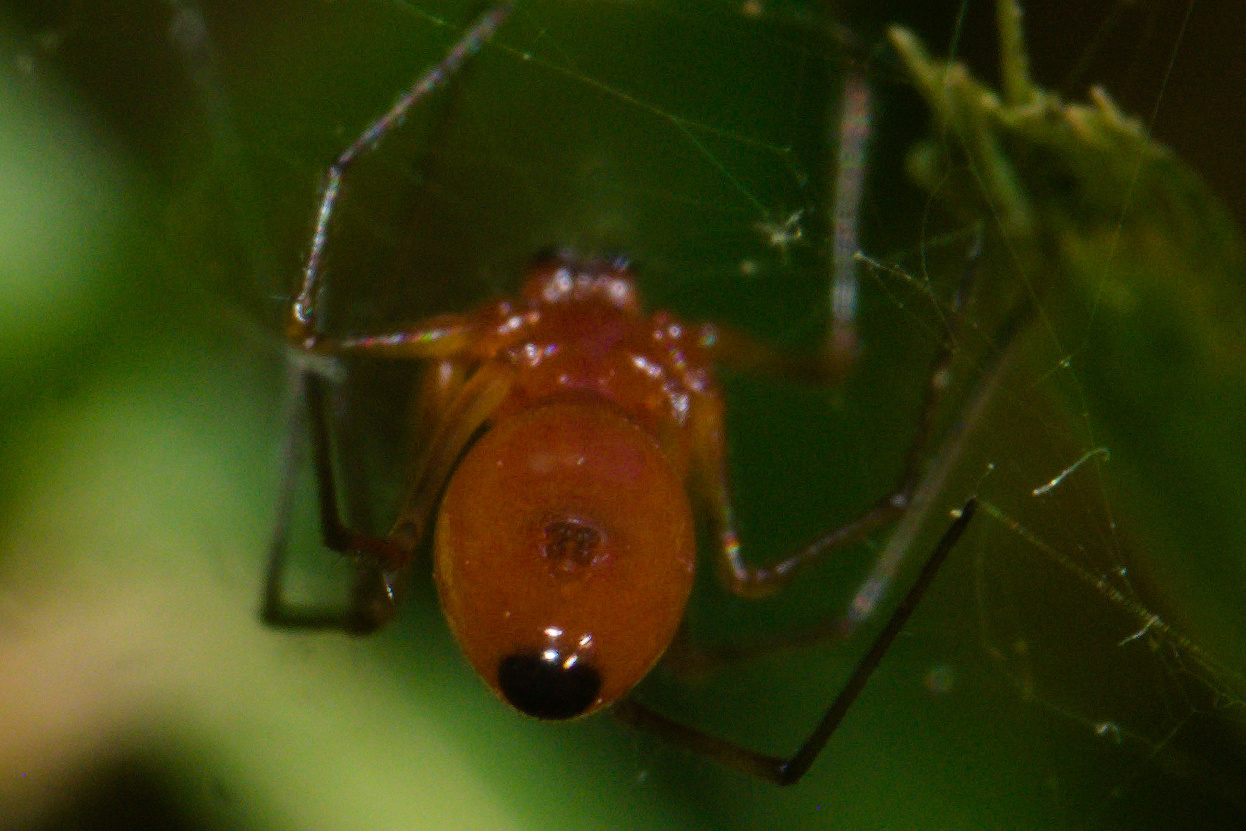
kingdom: Animalia
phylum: Arthropoda
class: Arachnida
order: Araneae
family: Linyphiidae
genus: Florinda
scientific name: Florinda coccinea
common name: Black-tailed red sheetweaver
